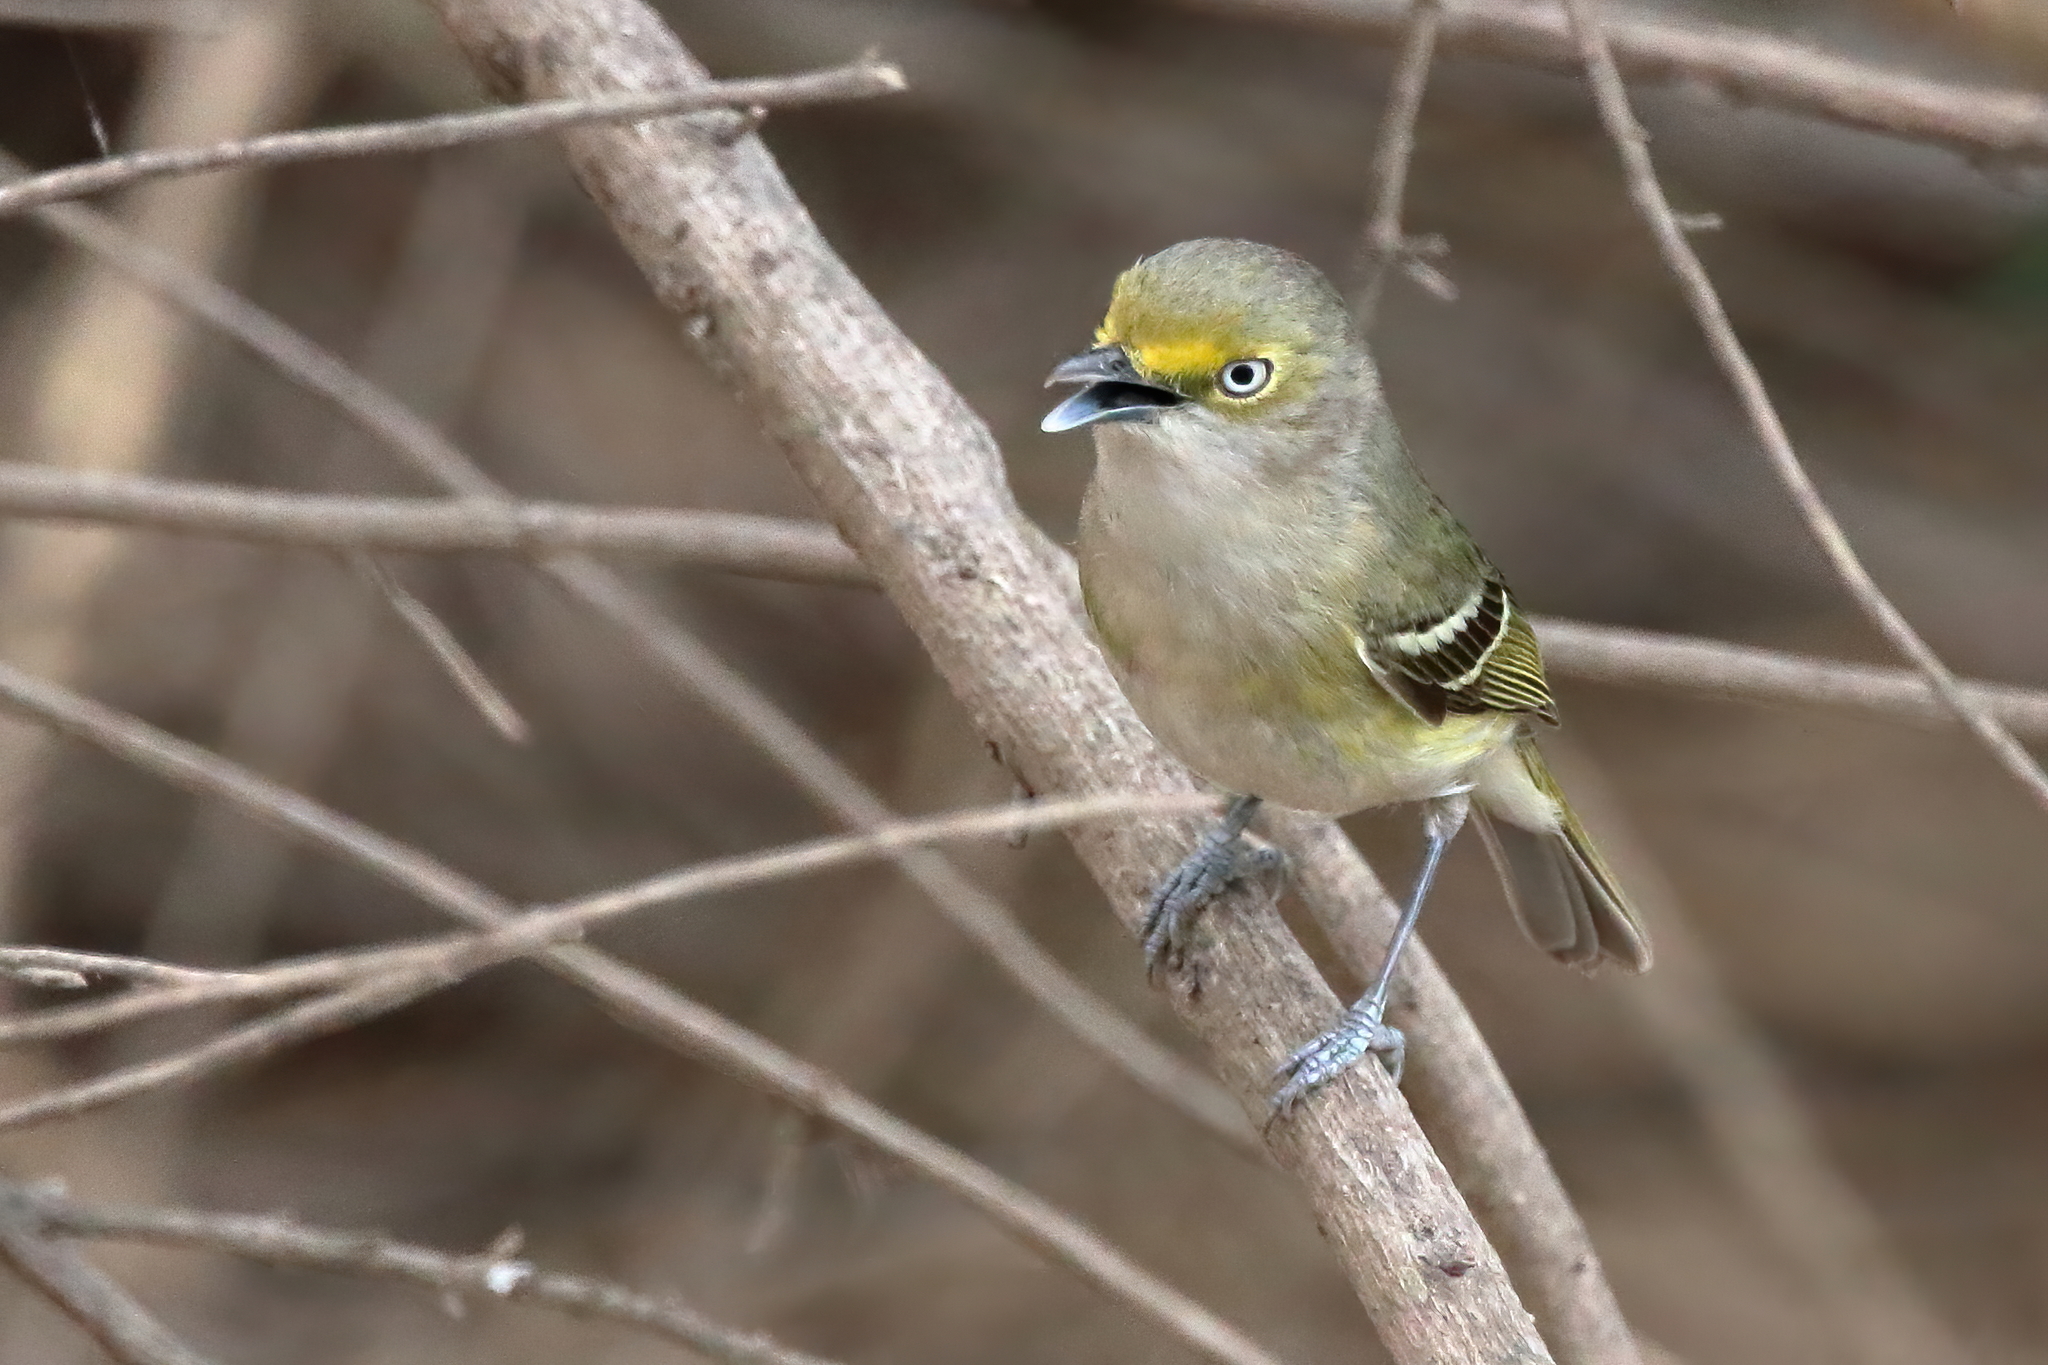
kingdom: Animalia
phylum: Chordata
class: Aves
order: Passeriformes
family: Vireonidae
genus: Vireo
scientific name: Vireo griseus
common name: White-eyed vireo
